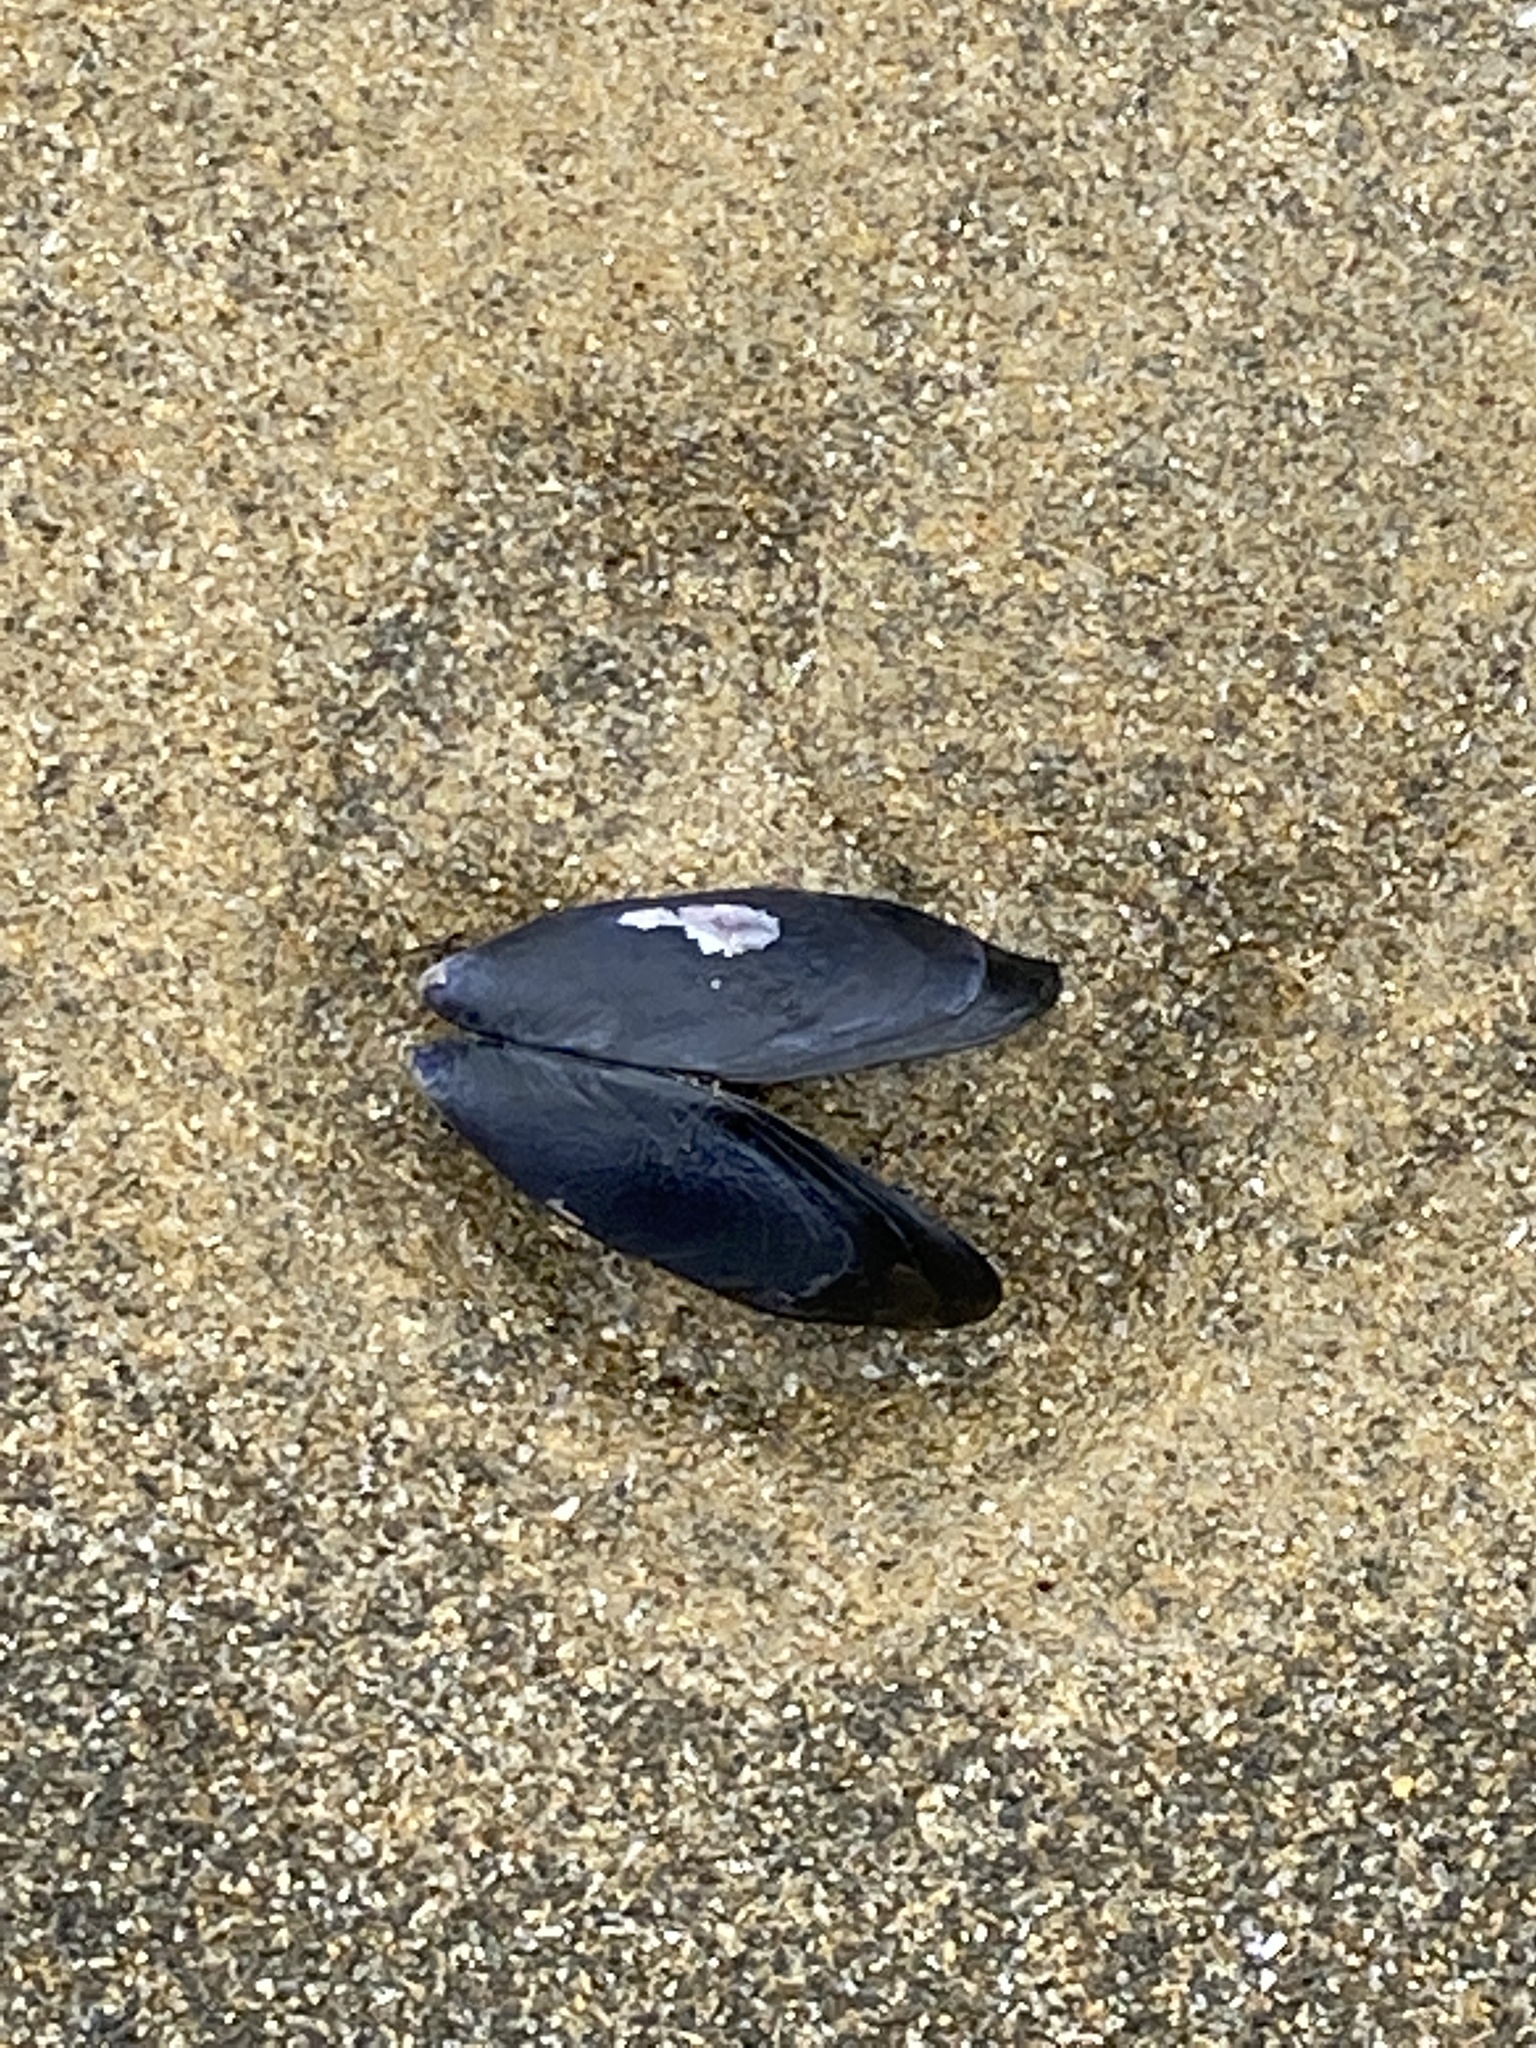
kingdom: Animalia
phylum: Mollusca
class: Bivalvia
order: Mytilida
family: Mytilidae
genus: Mytilus
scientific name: Mytilus planulatus
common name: Australian mussel
